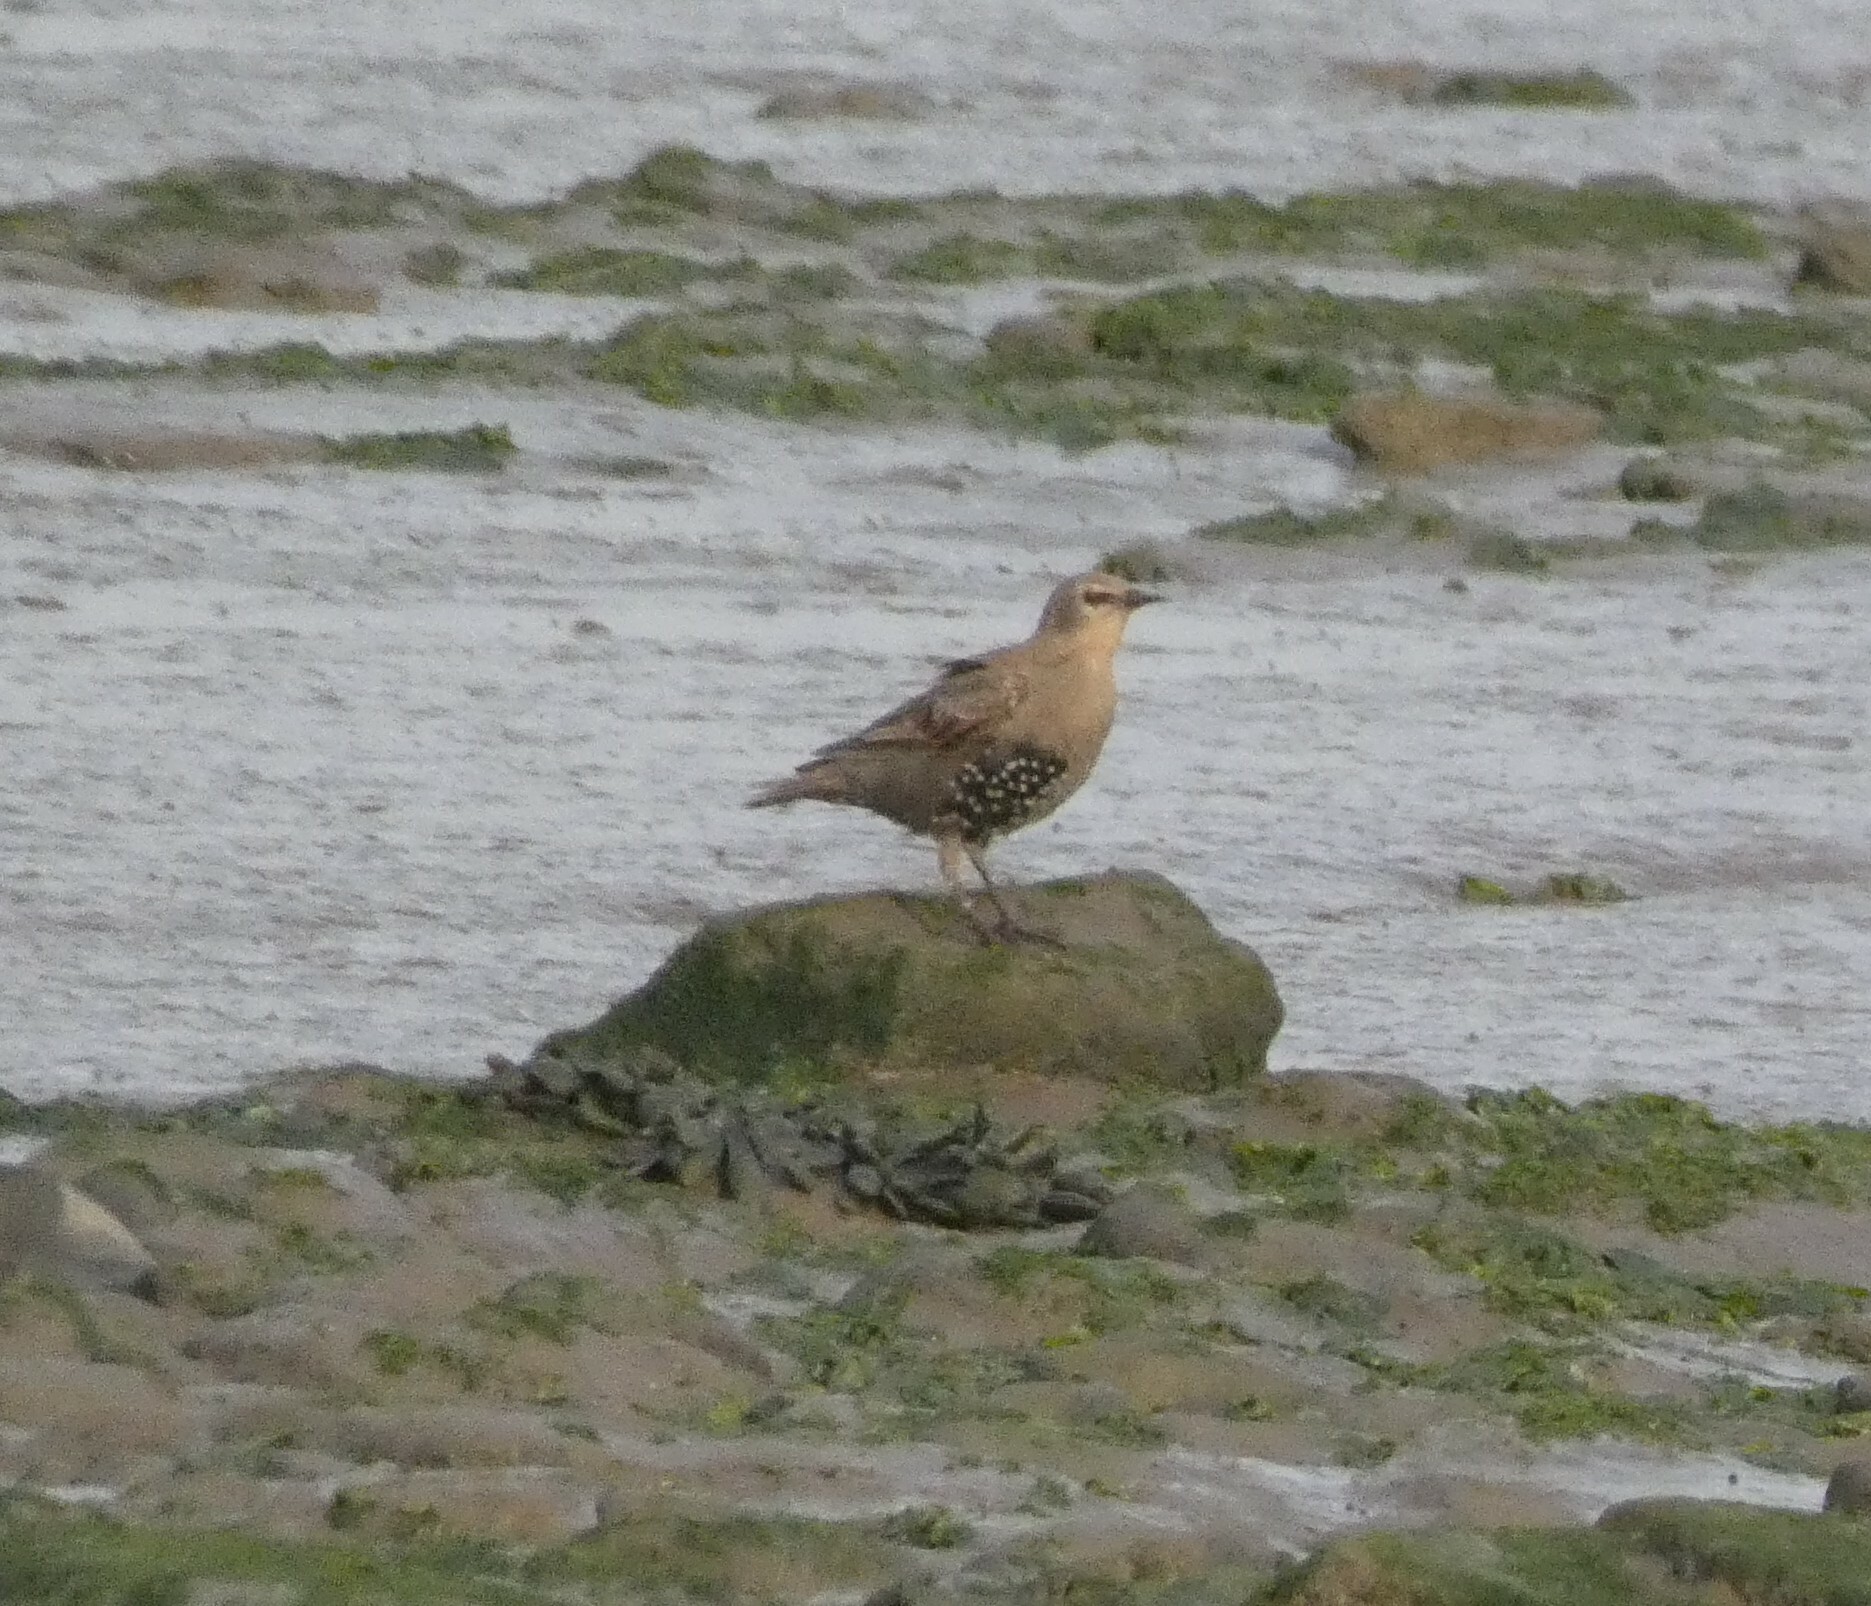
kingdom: Animalia
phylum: Chordata
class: Aves
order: Passeriformes
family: Sturnidae
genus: Sturnus
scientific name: Sturnus vulgaris
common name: Common starling
